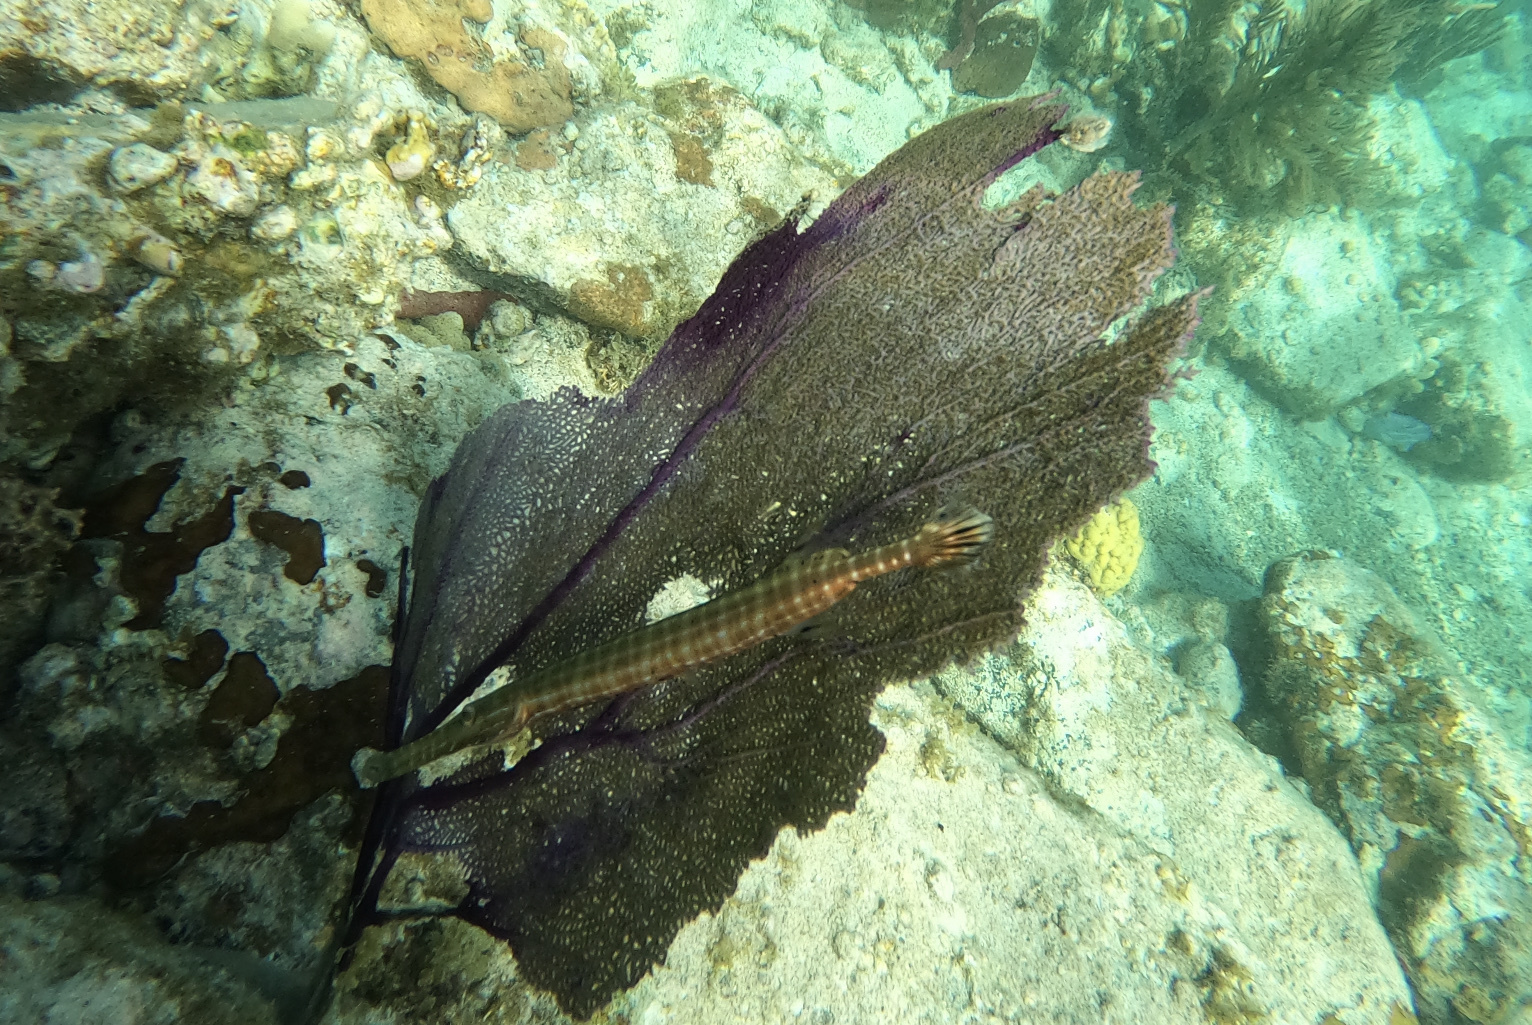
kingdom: Animalia
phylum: Chordata
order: Syngnathiformes
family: Aulostomidae
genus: Aulostomus
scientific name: Aulostomus maculatus
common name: West atlantic trumpetfish
